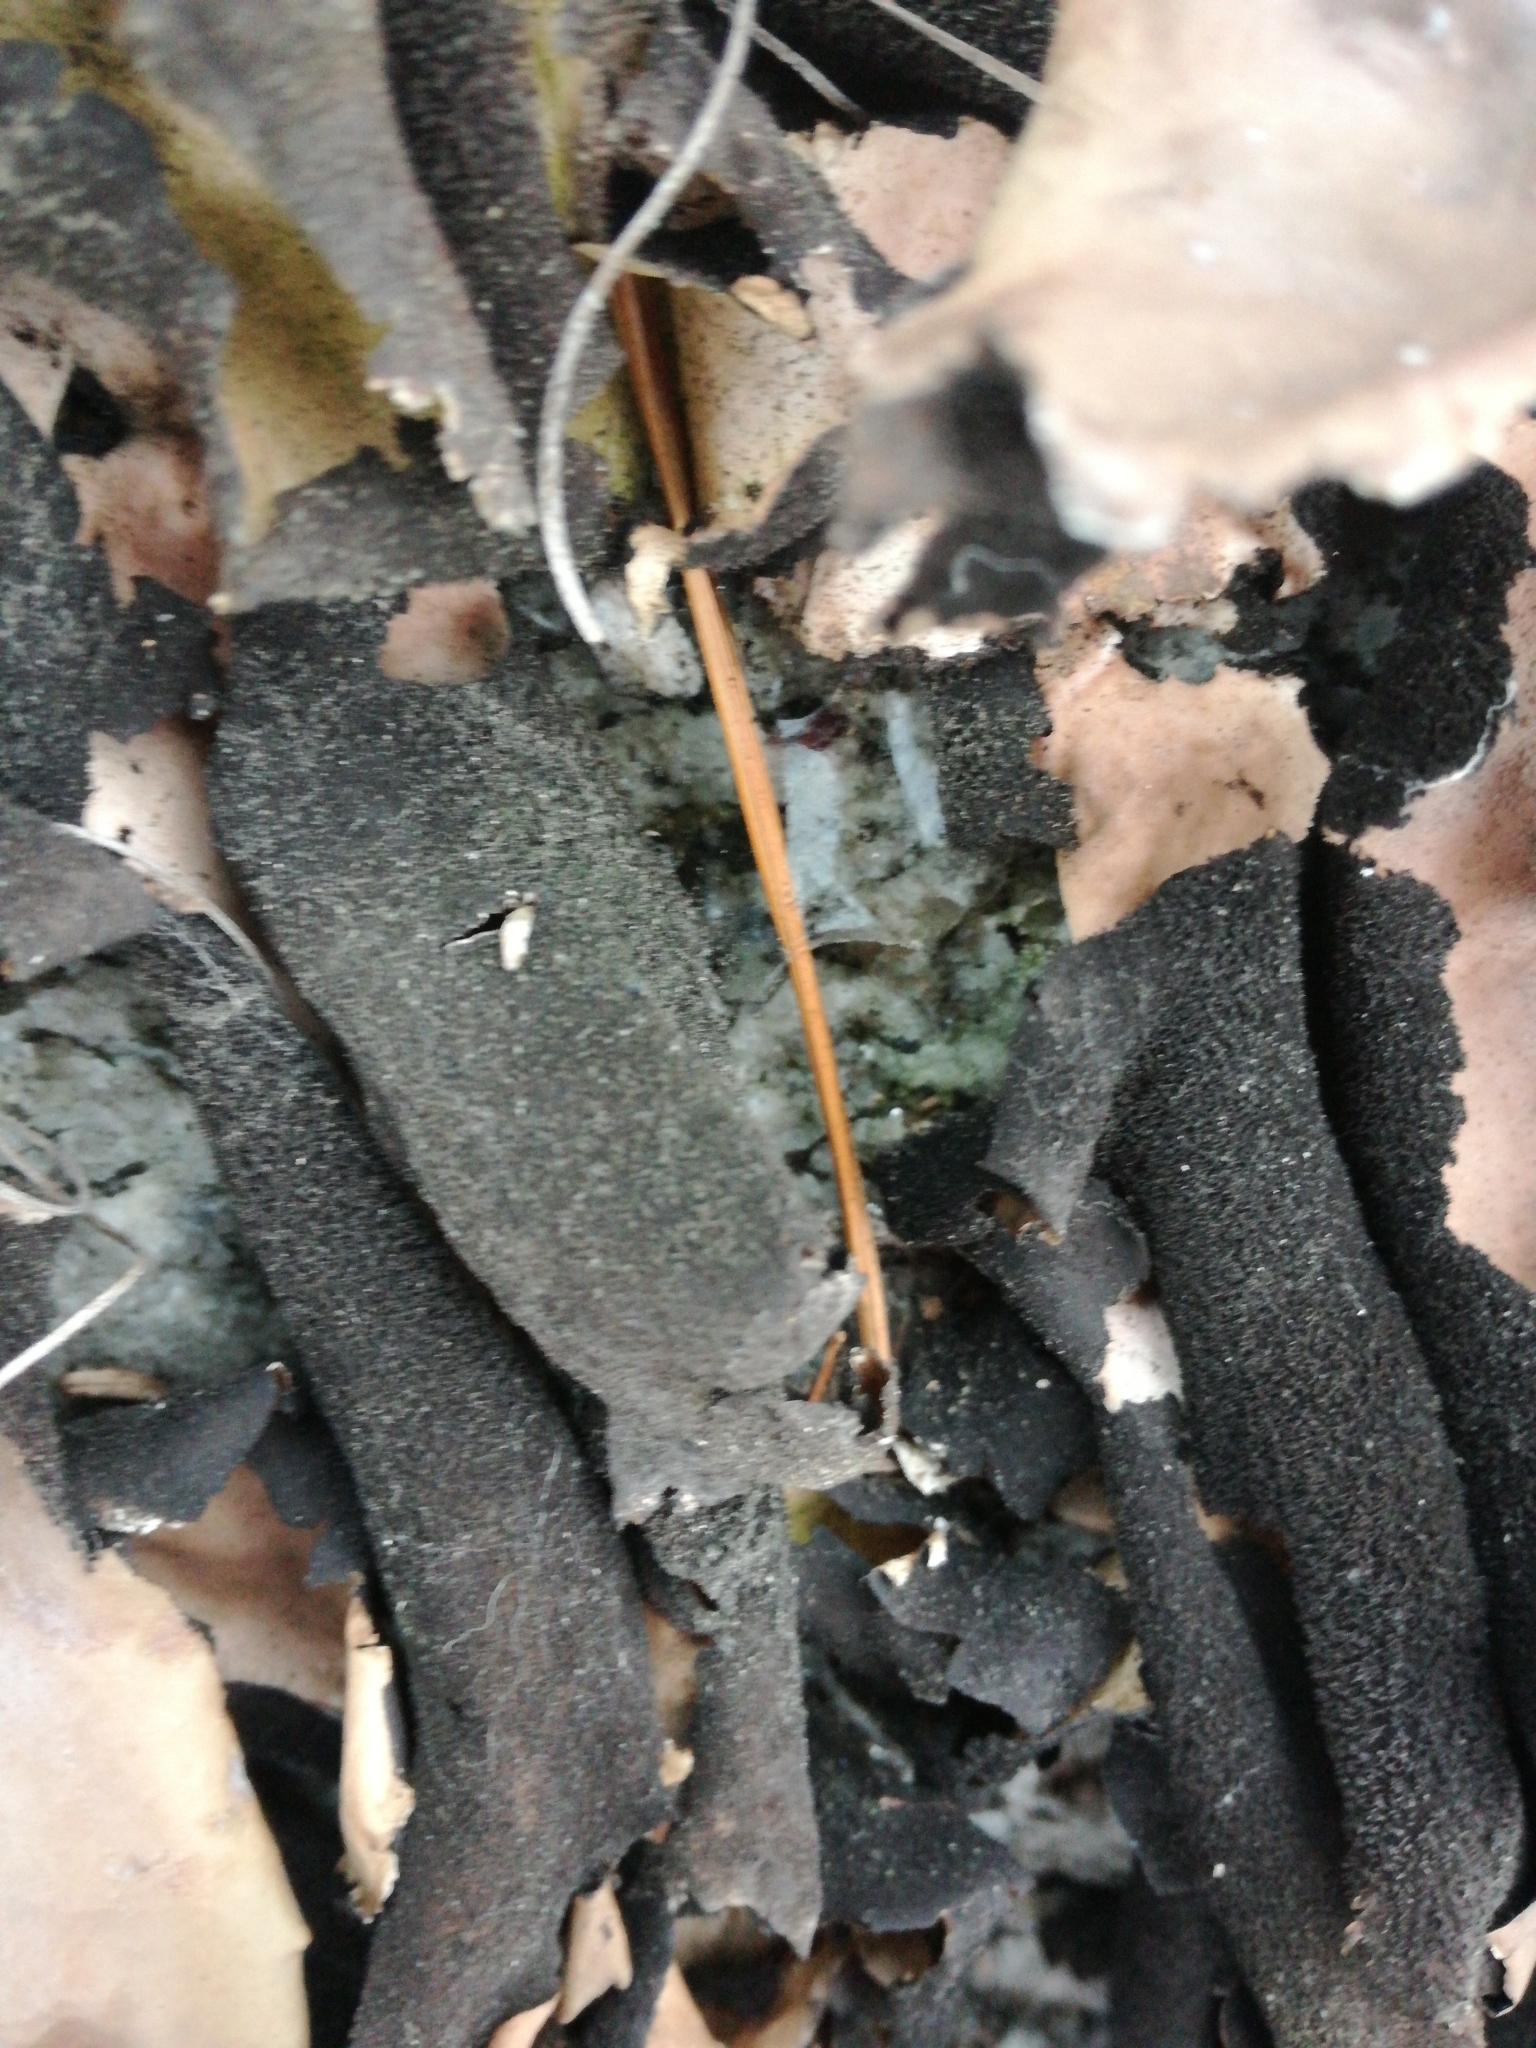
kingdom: Fungi
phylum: Ascomycota
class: Lecanoromycetes
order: Umbilicariales
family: Umbilicariaceae
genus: Umbilicaria
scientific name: Umbilicaria mammulata
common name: Smooth rock tripe
